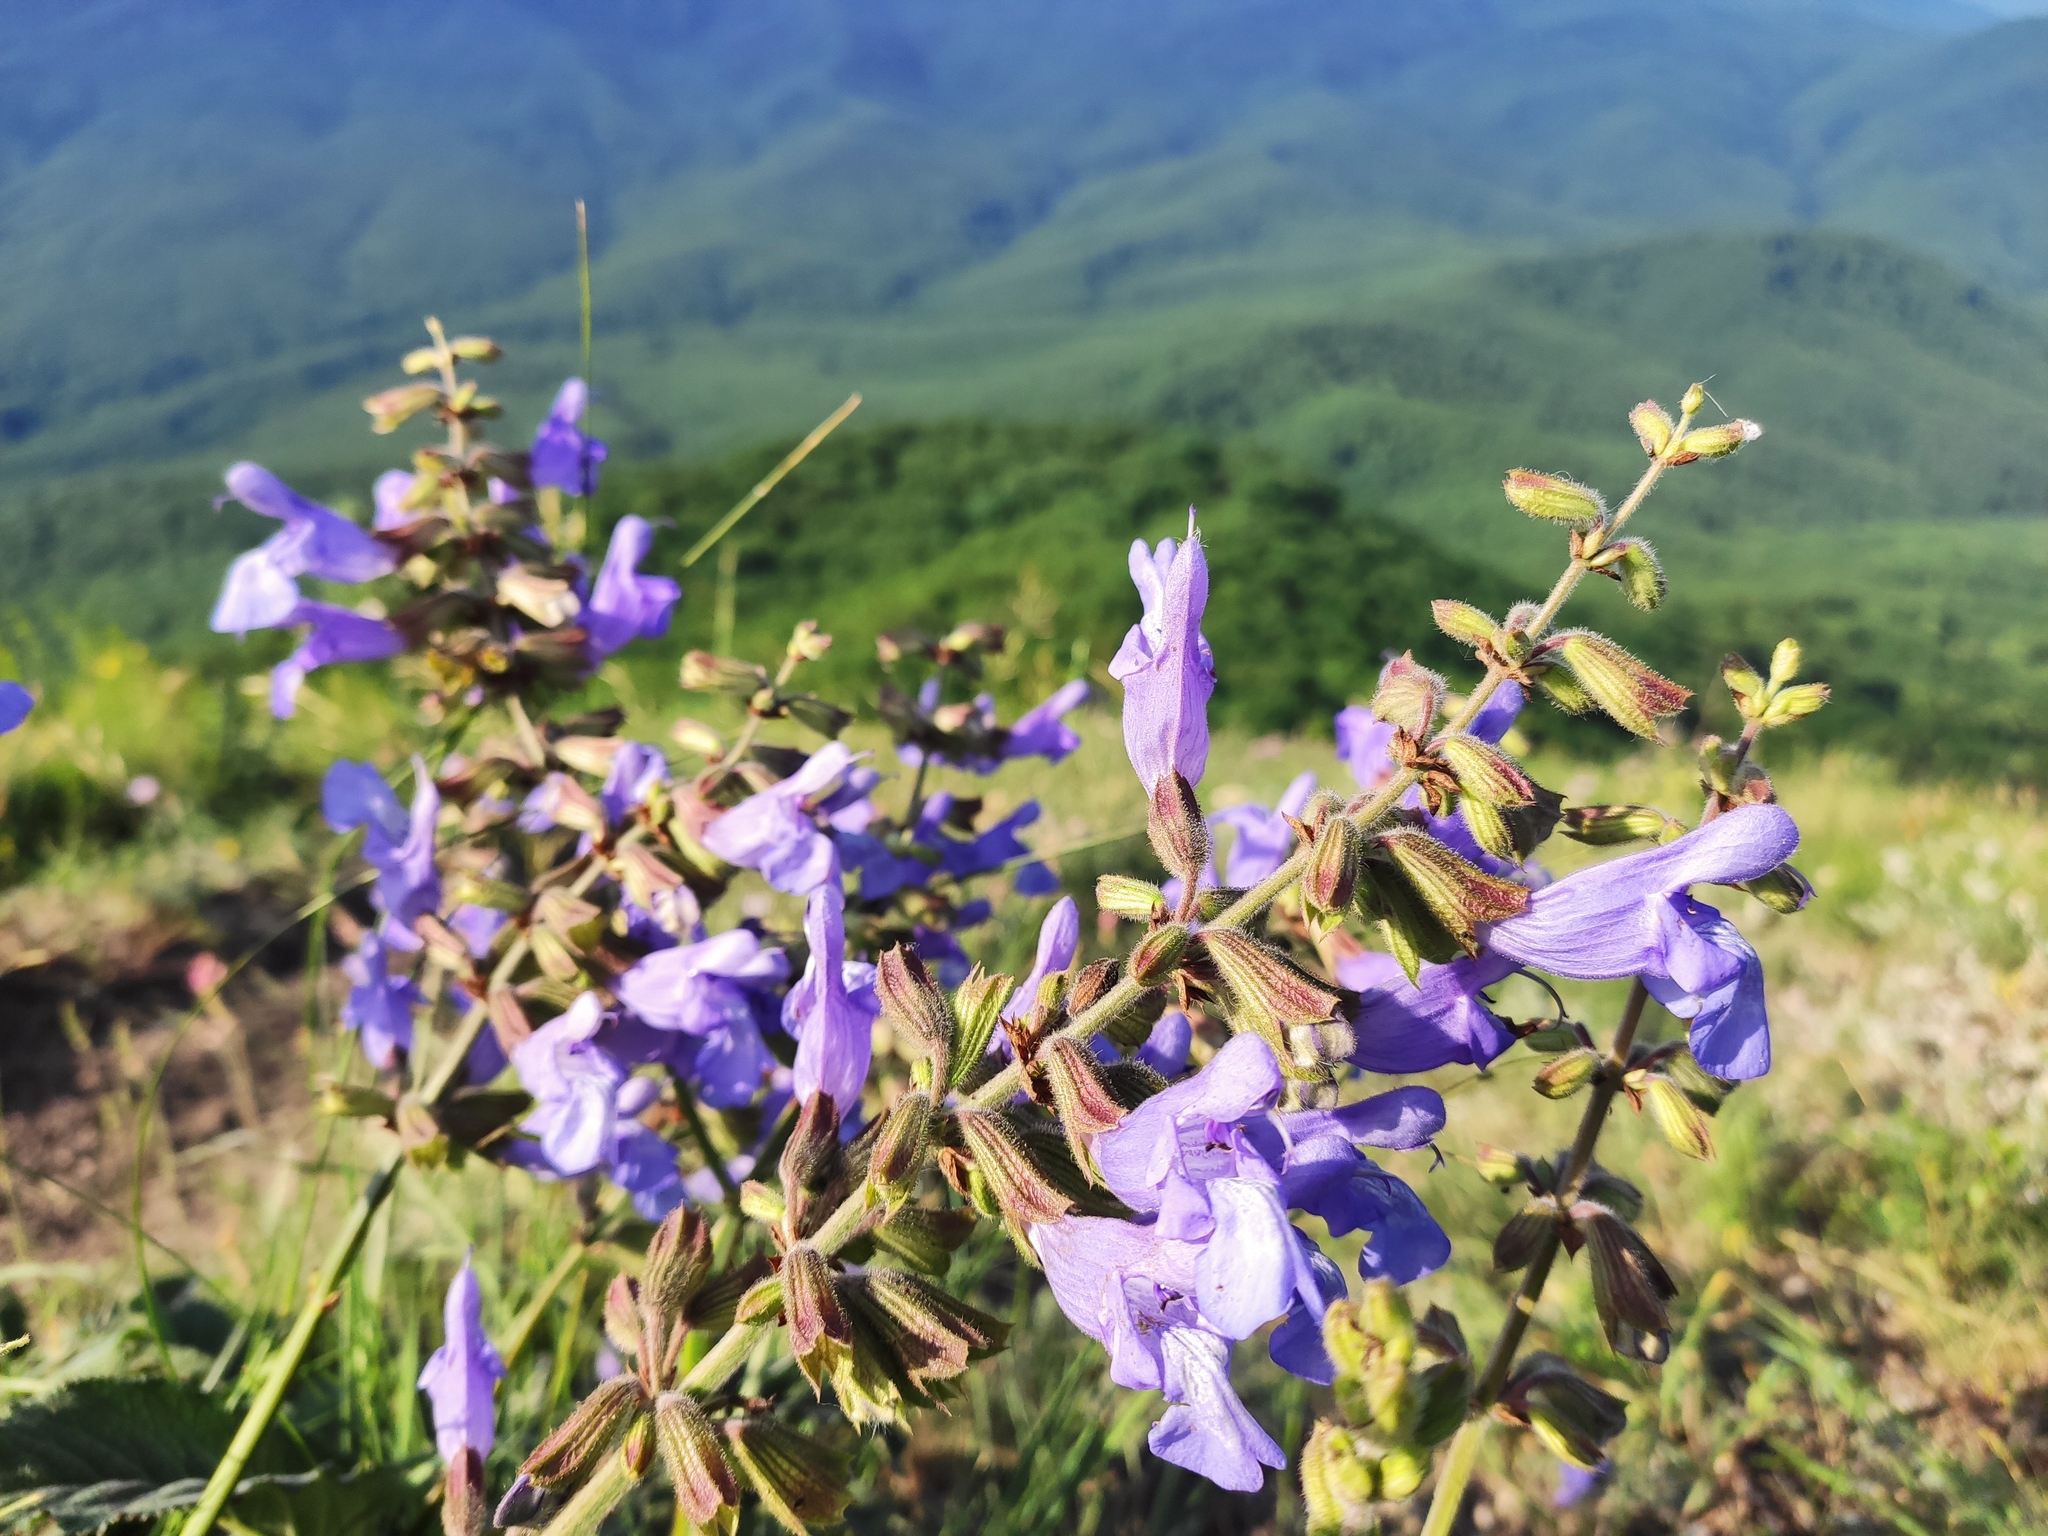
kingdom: Plantae
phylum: Tracheophyta
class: Magnoliopsida
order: Lamiales
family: Lamiaceae
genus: Salvia
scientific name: Salvia ringens
